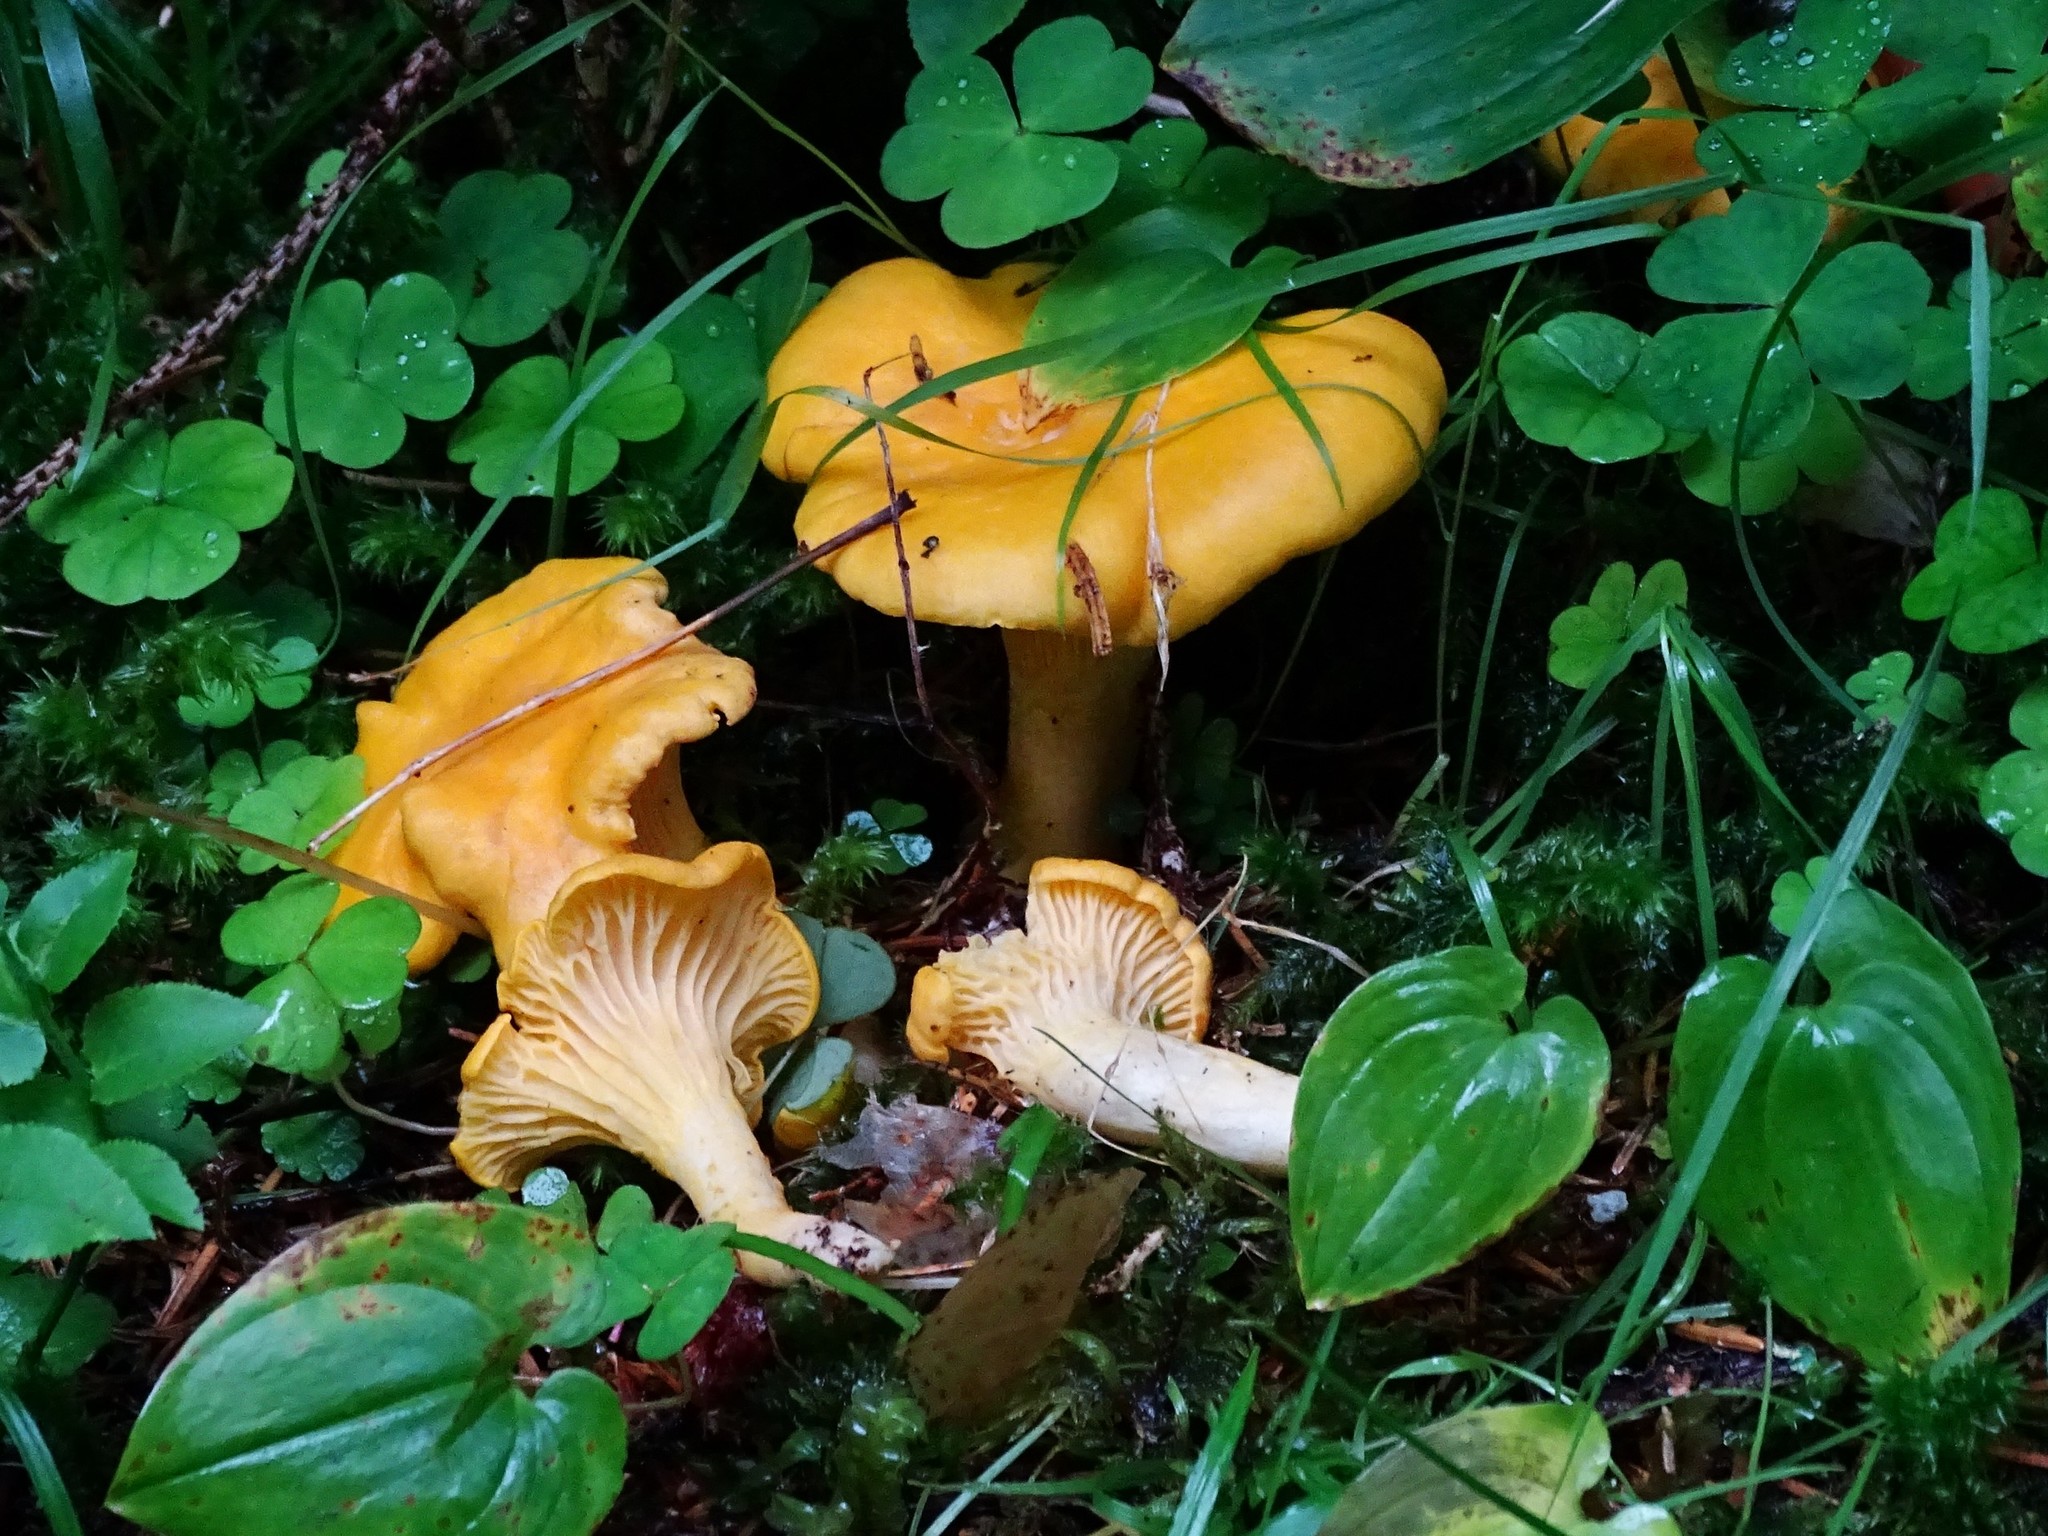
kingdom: Fungi
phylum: Basidiomycota
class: Agaricomycetes
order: Cantharellales
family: Hydnaceae
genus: Cantharellus
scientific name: Cantharellus cibarius
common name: Chanterelle
